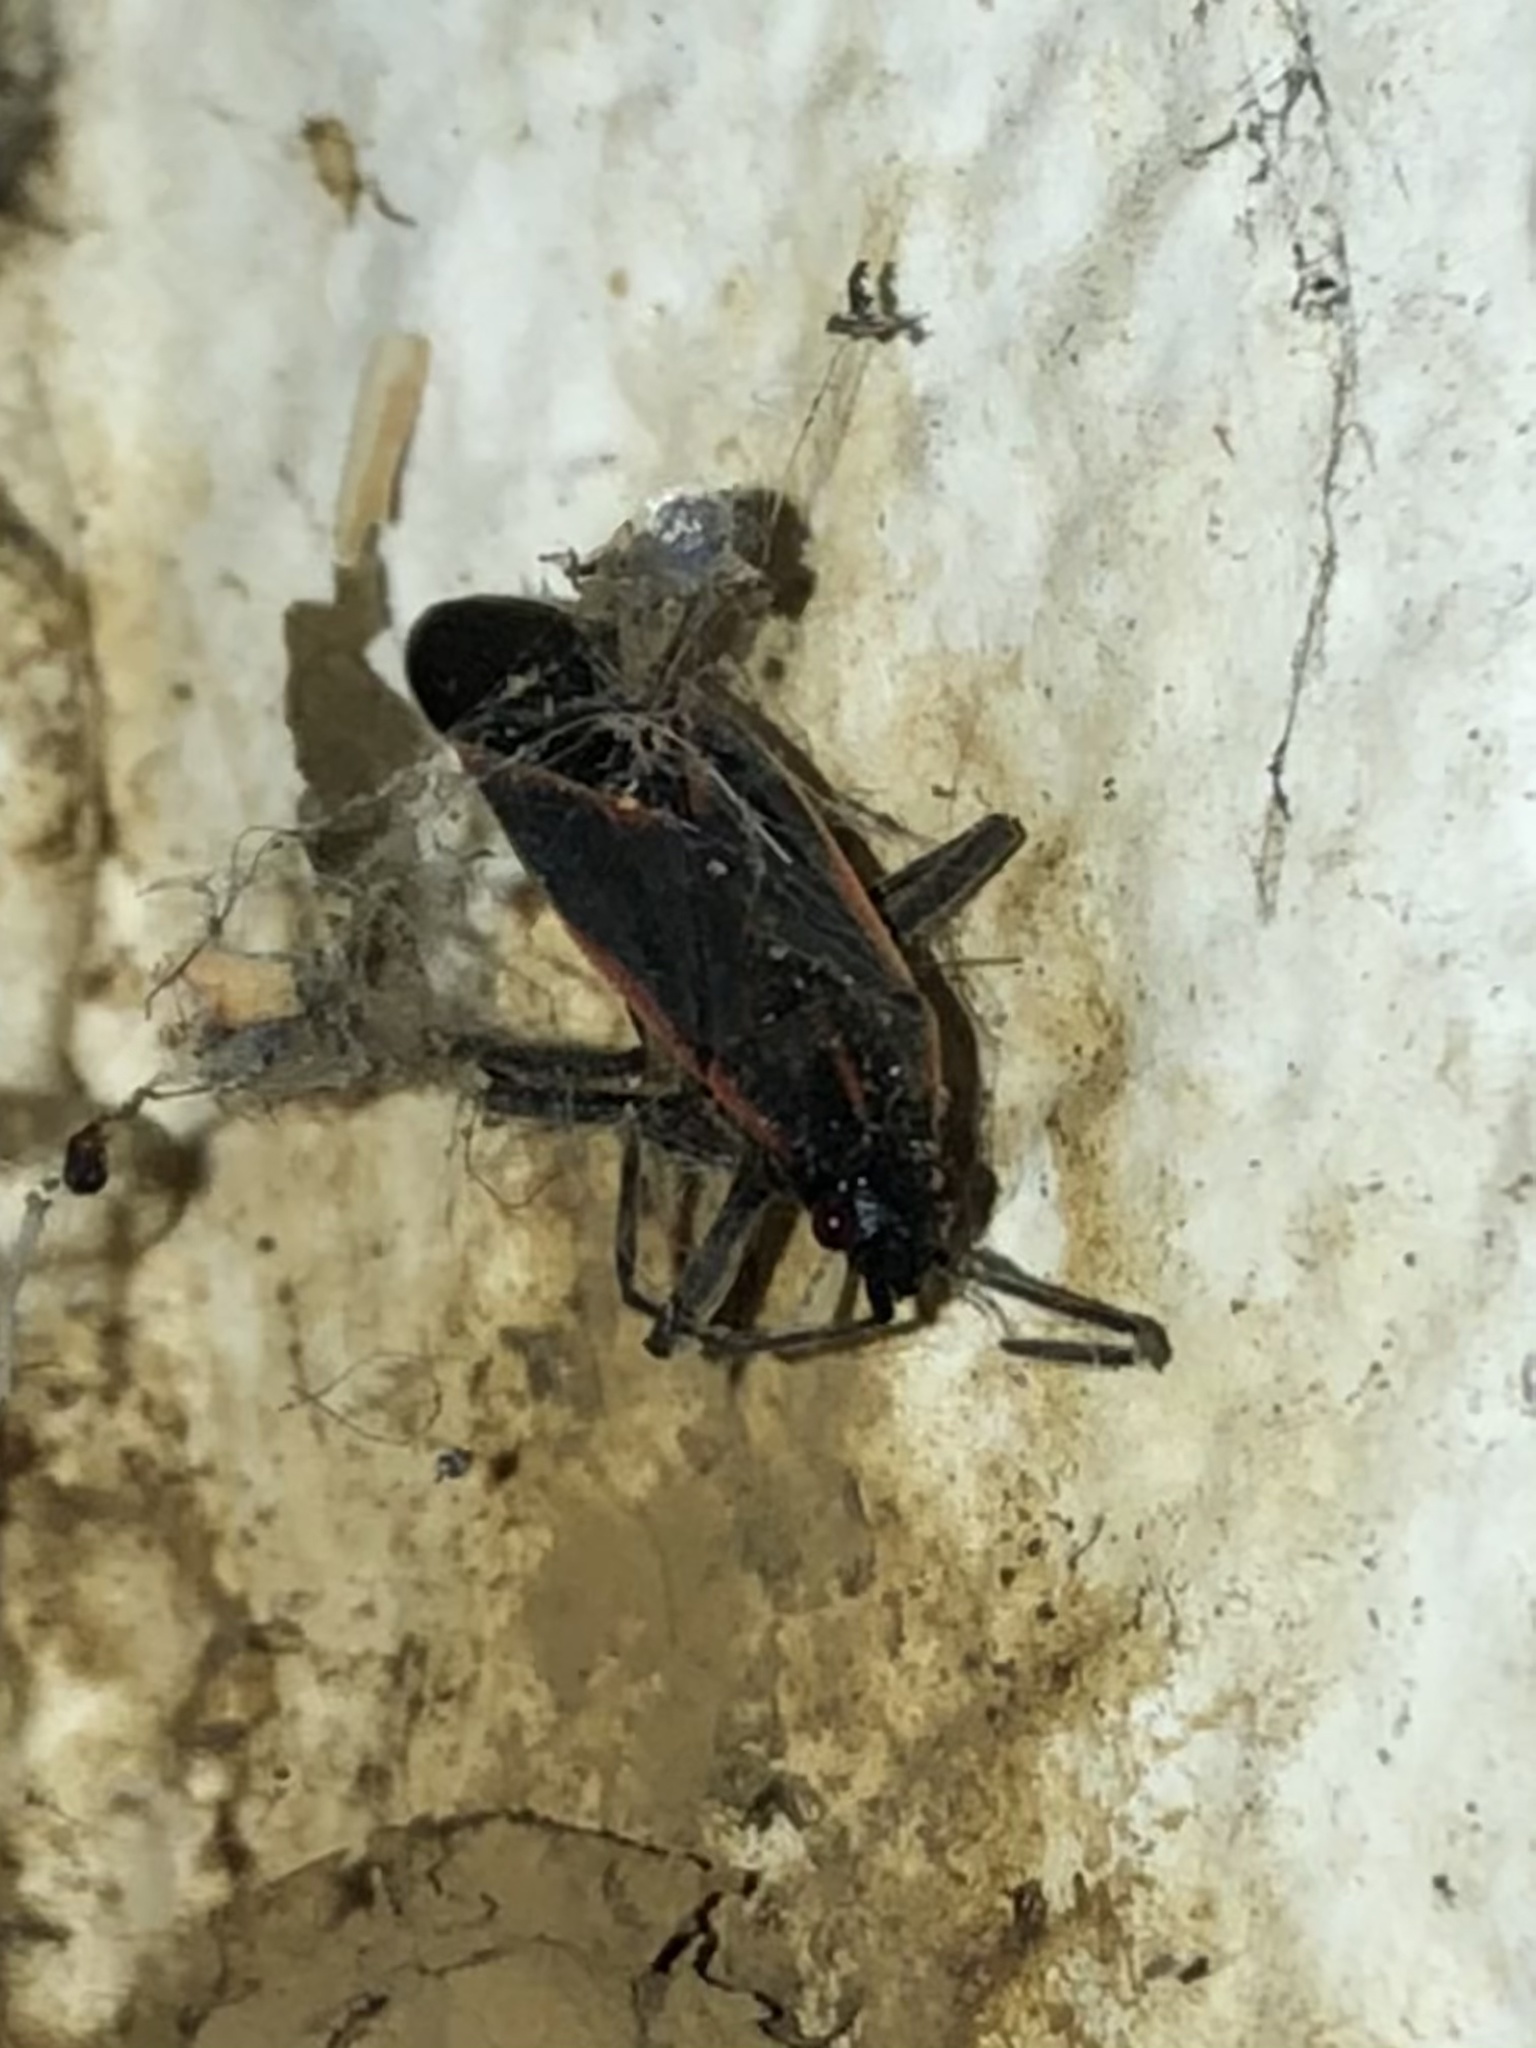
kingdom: Animalia
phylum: Arthropoda
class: Insecta
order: Hemiptera
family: Rhopalidae
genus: Boisea
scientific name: Boisea trivittata
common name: Boxelder bug
